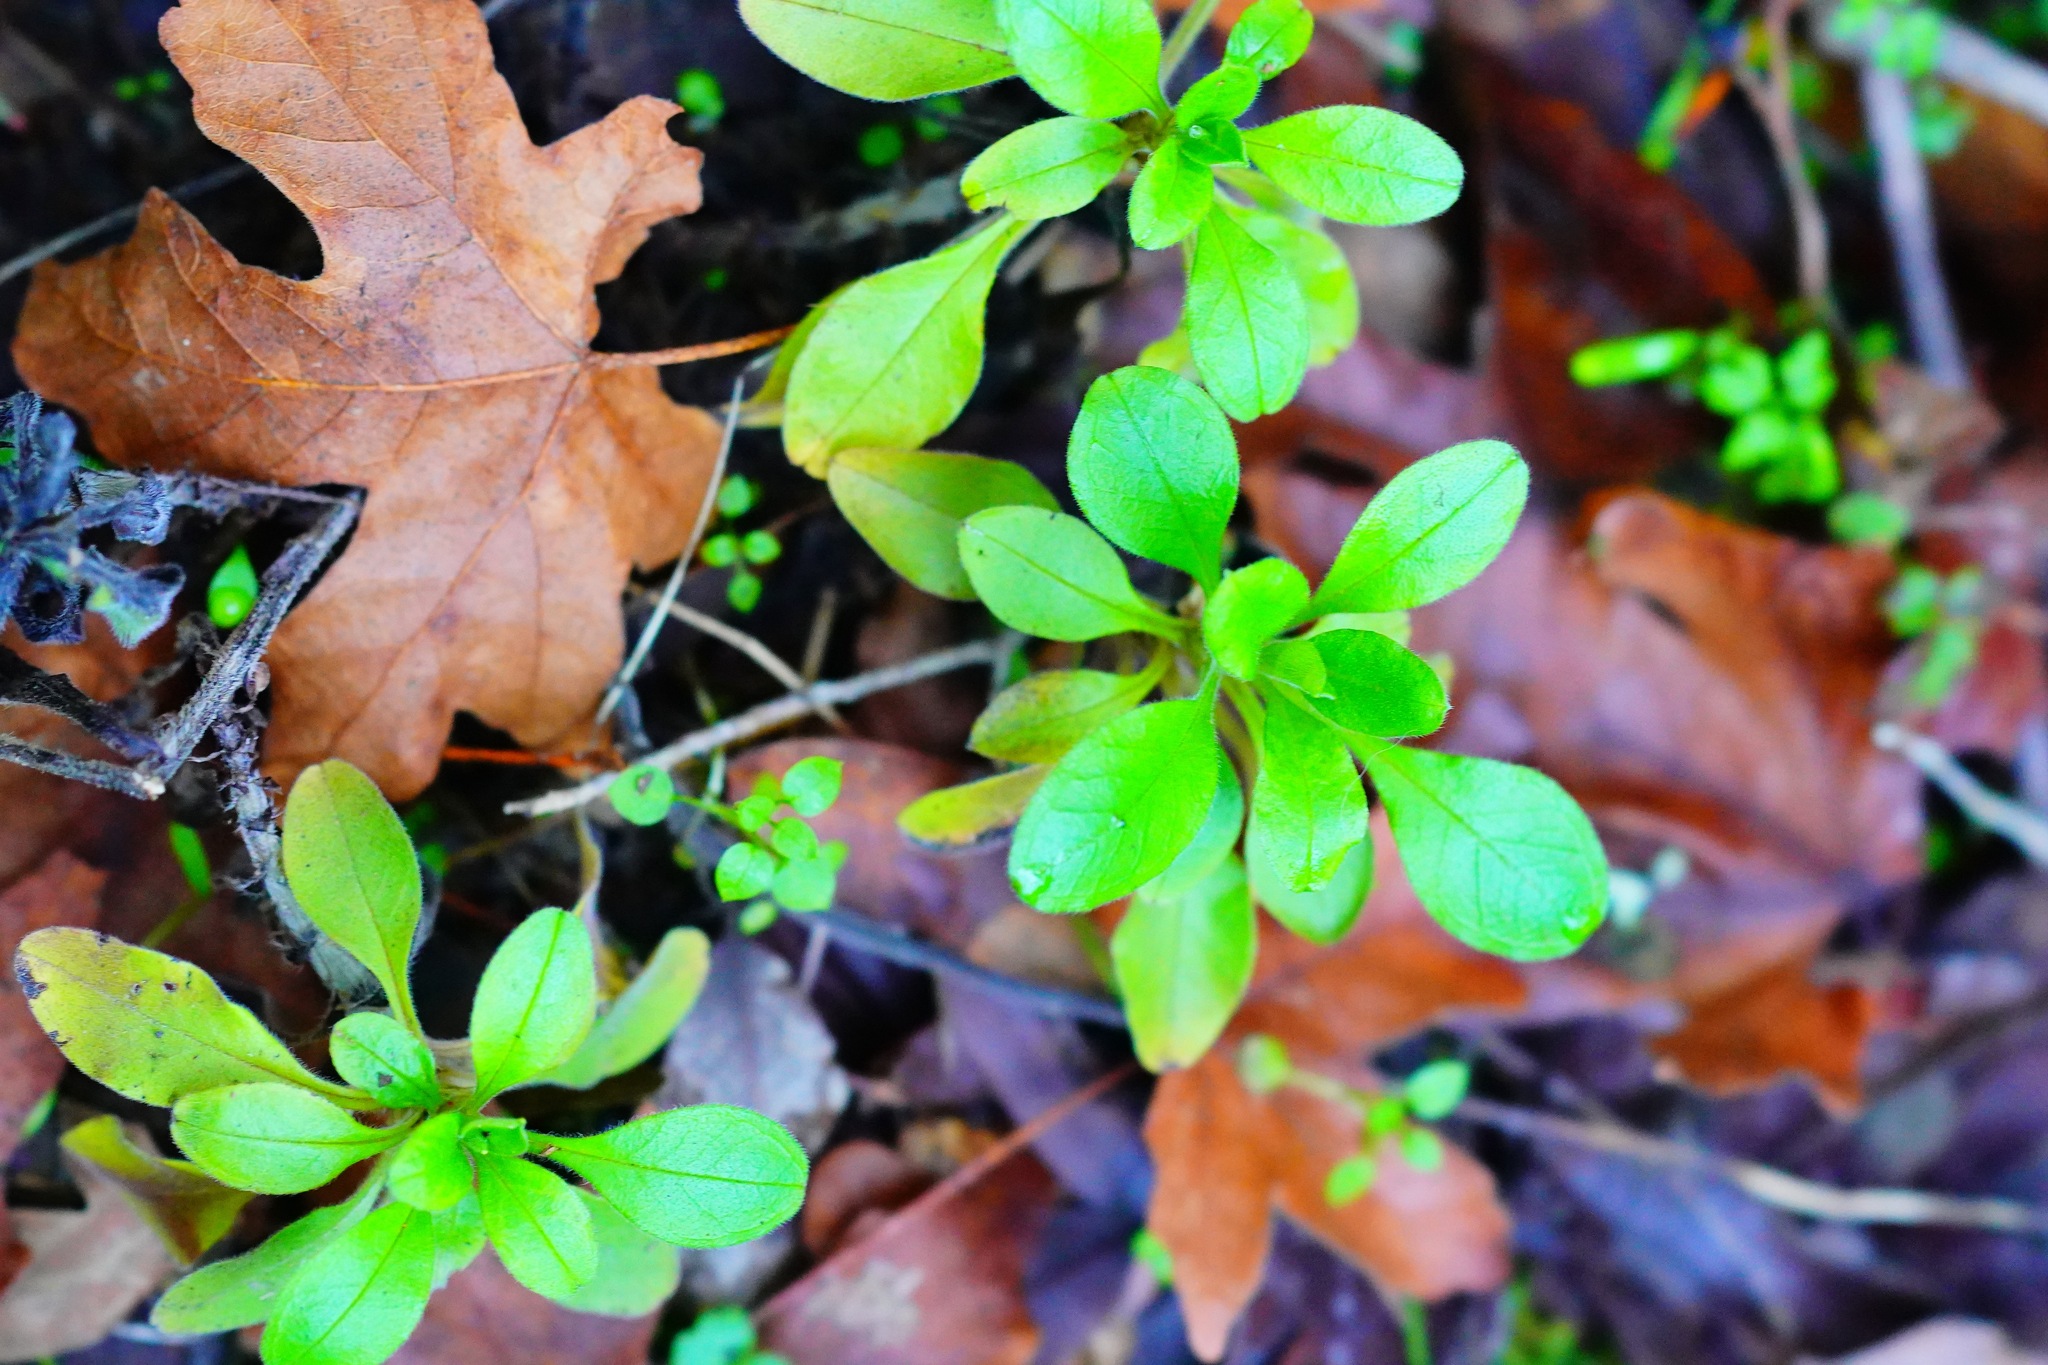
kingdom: Plantae
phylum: Tracheophyta
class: Magnoliopsida
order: Boraginales
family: Boraginaceae
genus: Myosotis
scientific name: Myosotis latifolia
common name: Broadleaf forget-me-not
